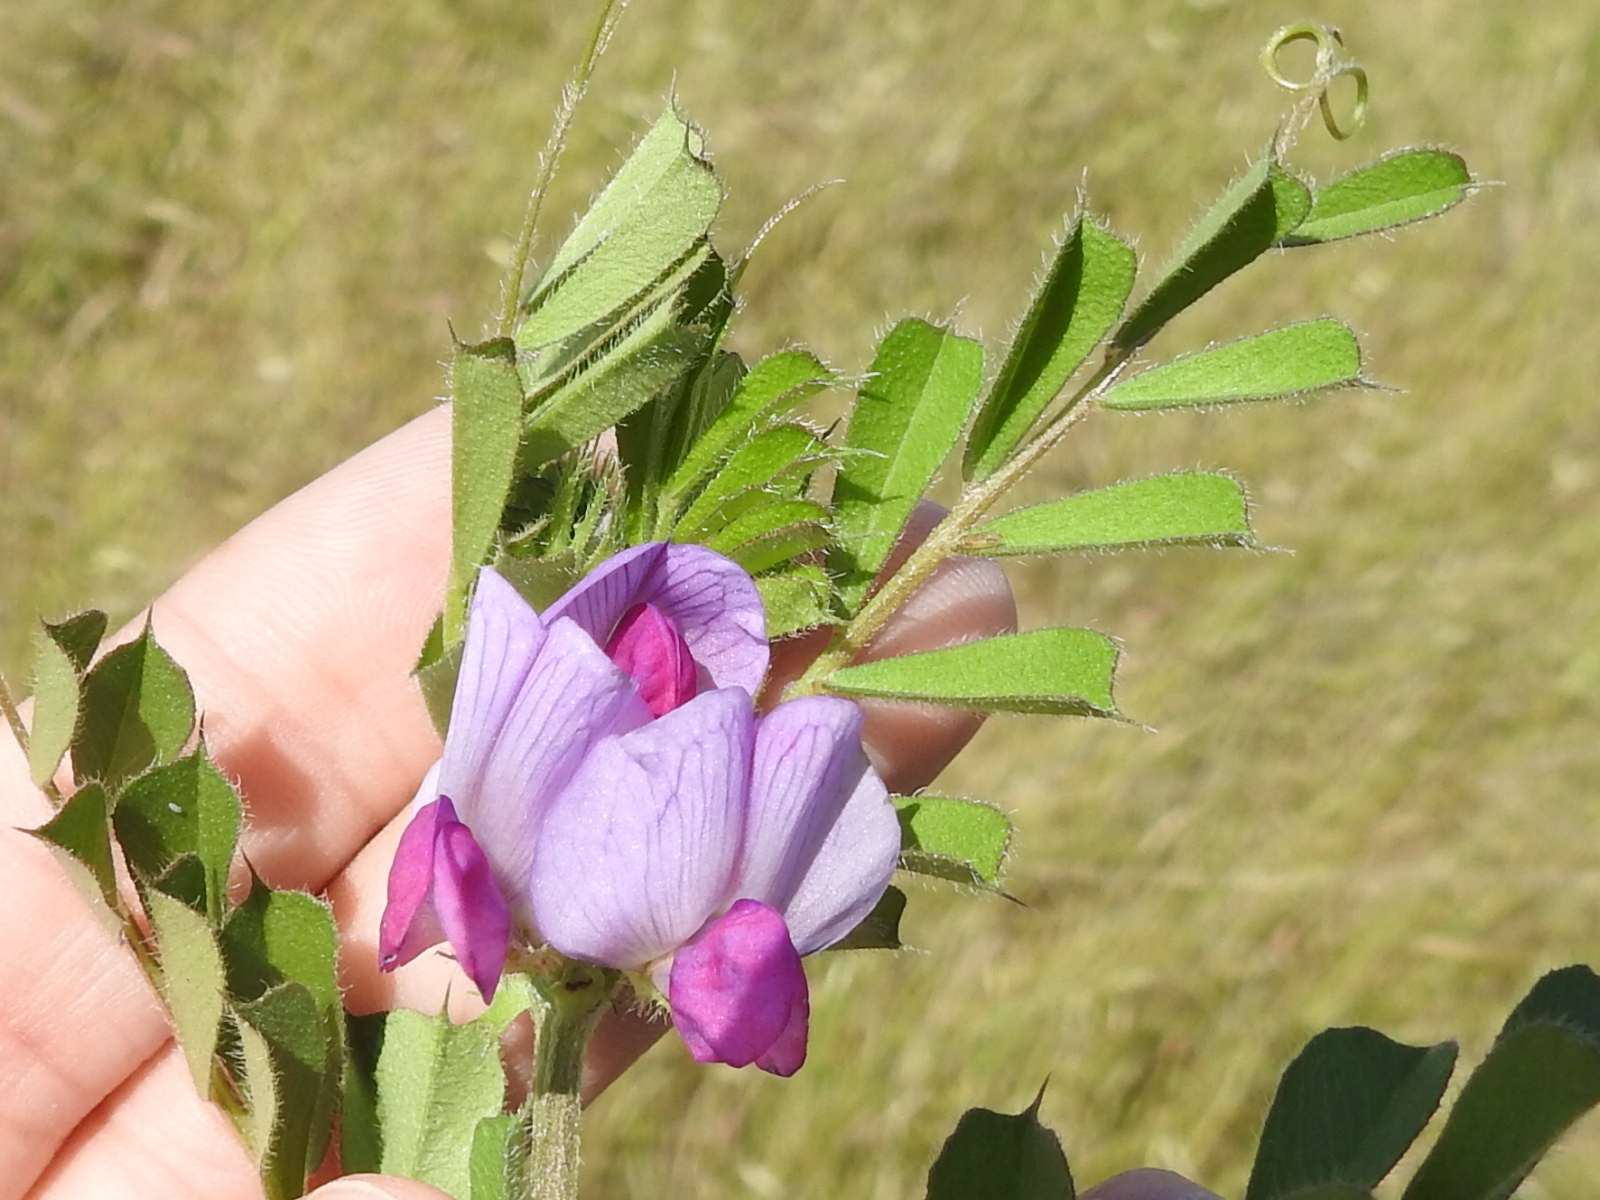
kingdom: Plantae
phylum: Tracheophyta
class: Magnoliopsida
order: Fabales
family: Fabaceae
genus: Vicia
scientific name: Vicia sativa
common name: Garden vetch
